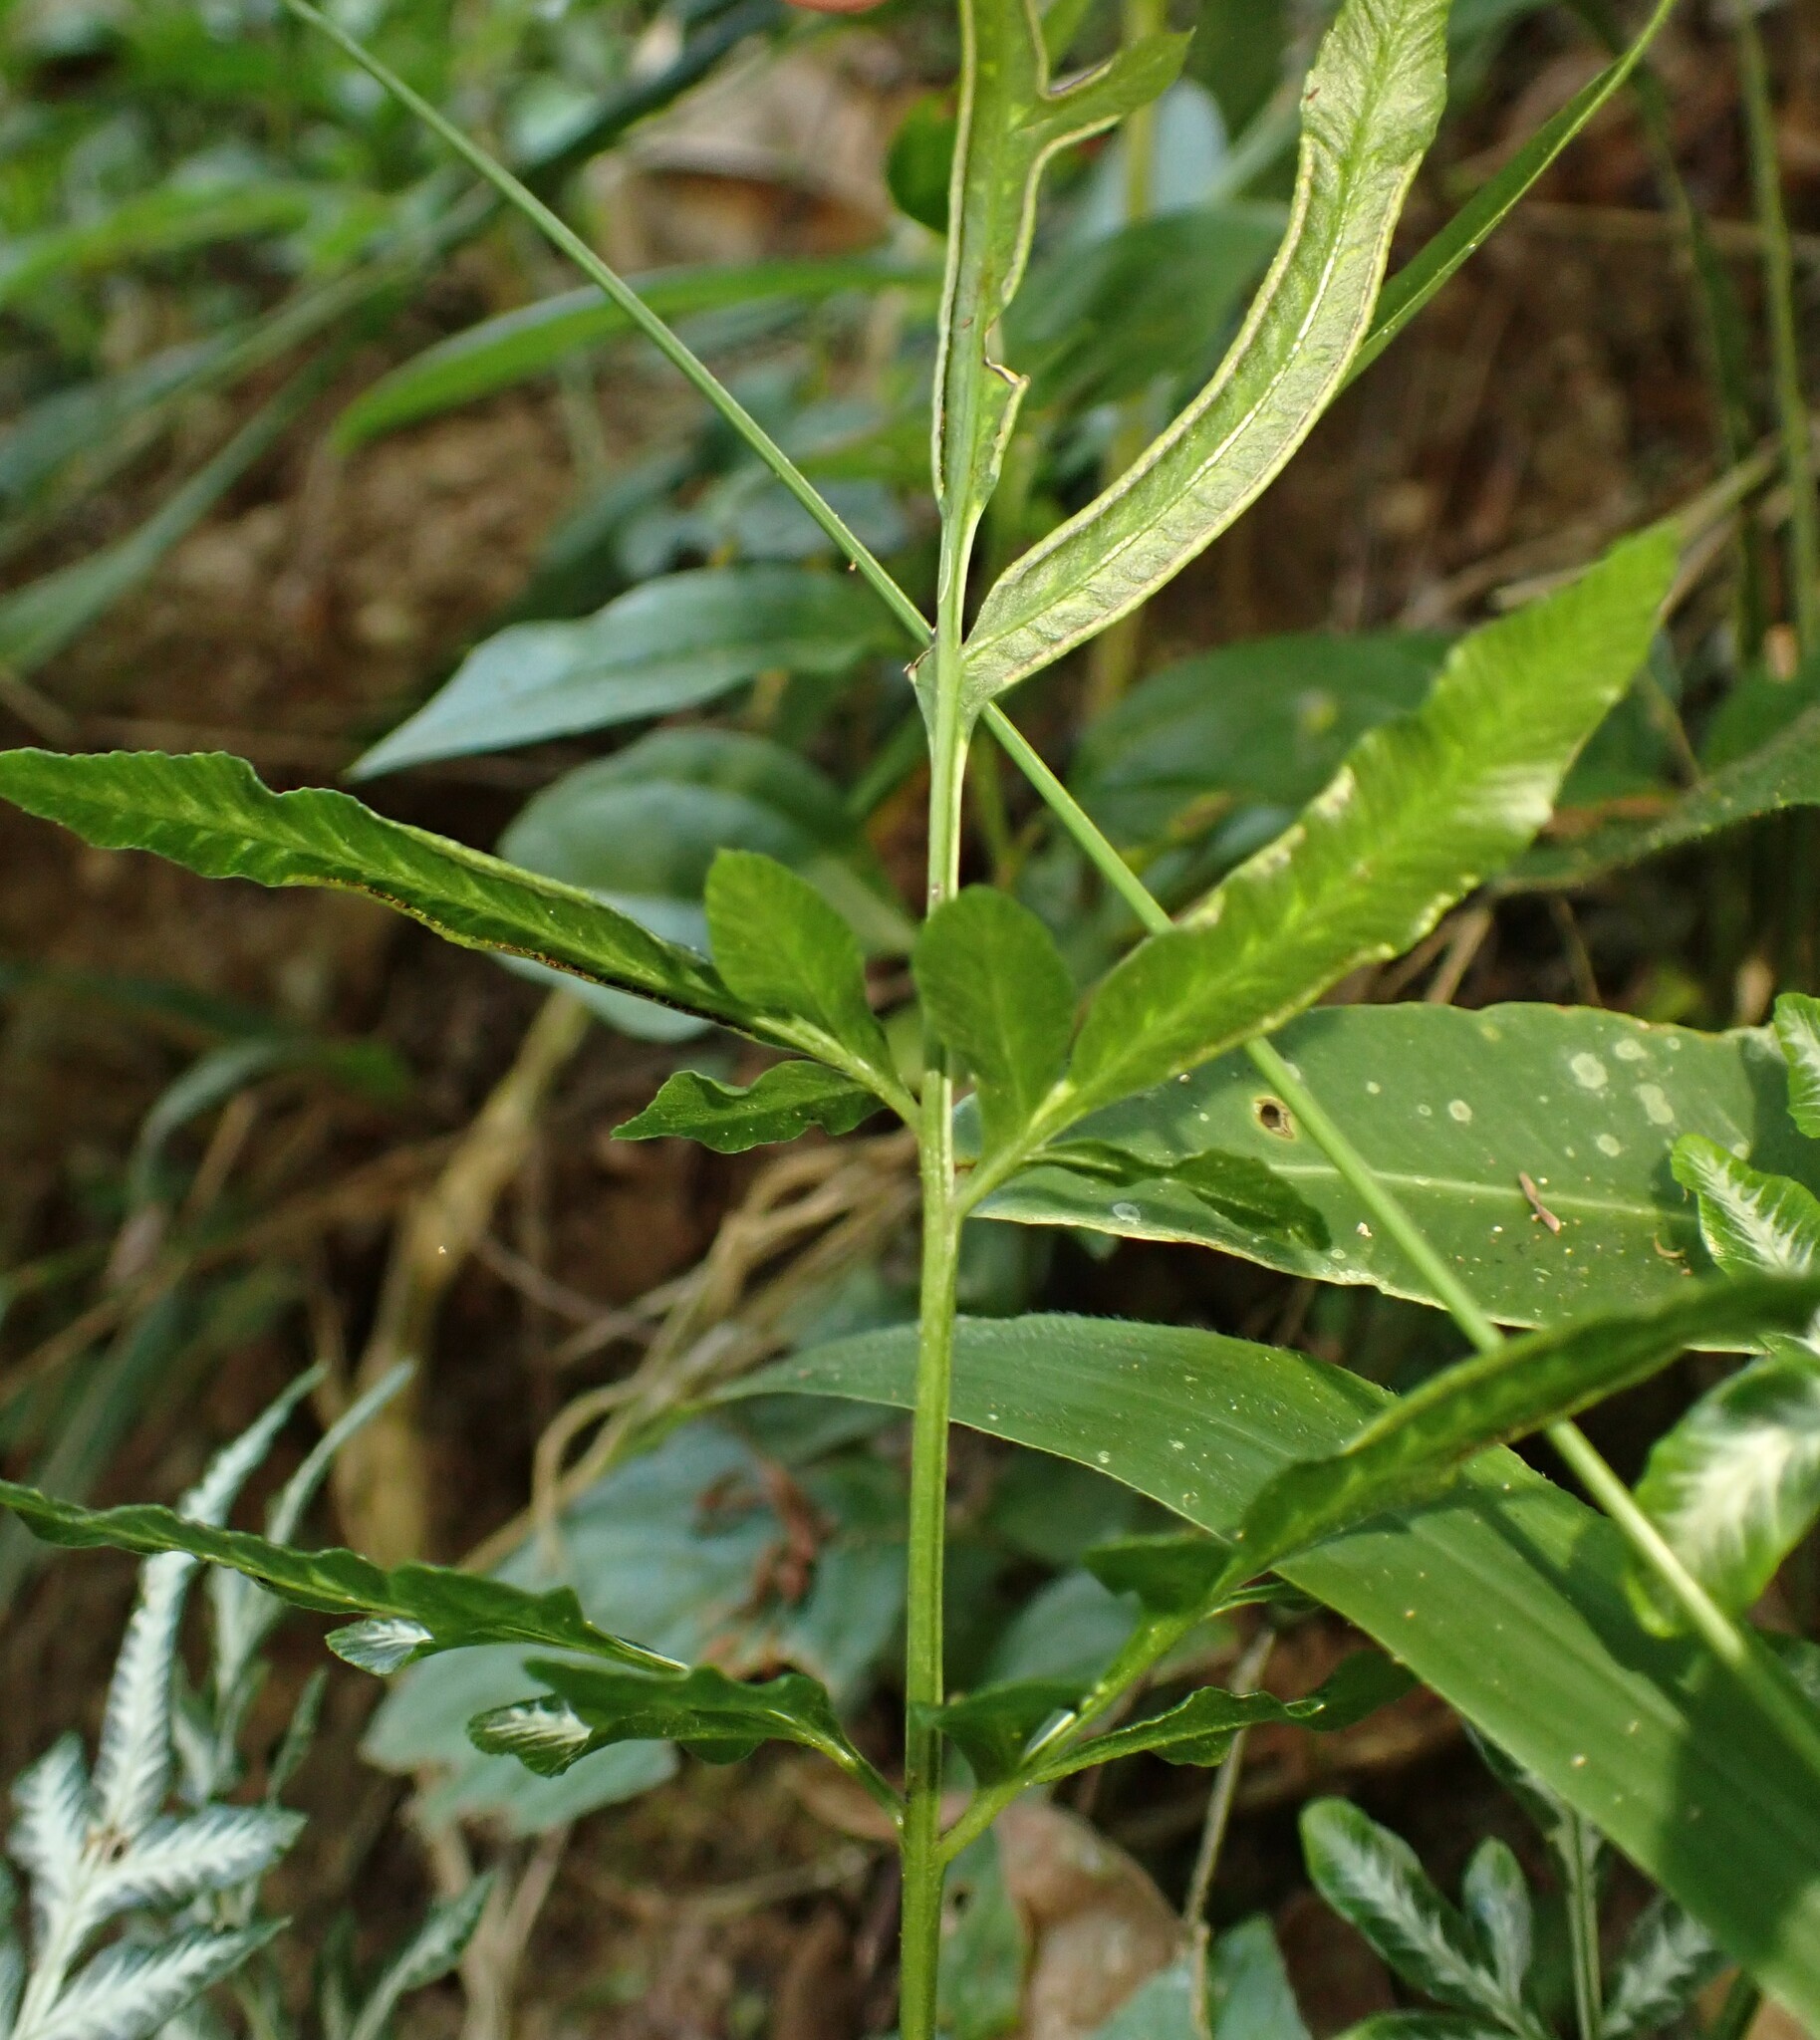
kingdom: Plantae
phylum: Tracheophyta
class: Polypodiopsida
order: Polypodiales
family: Pteridaceae
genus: Pteris
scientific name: Pteris ensiformis
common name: Sword brake
